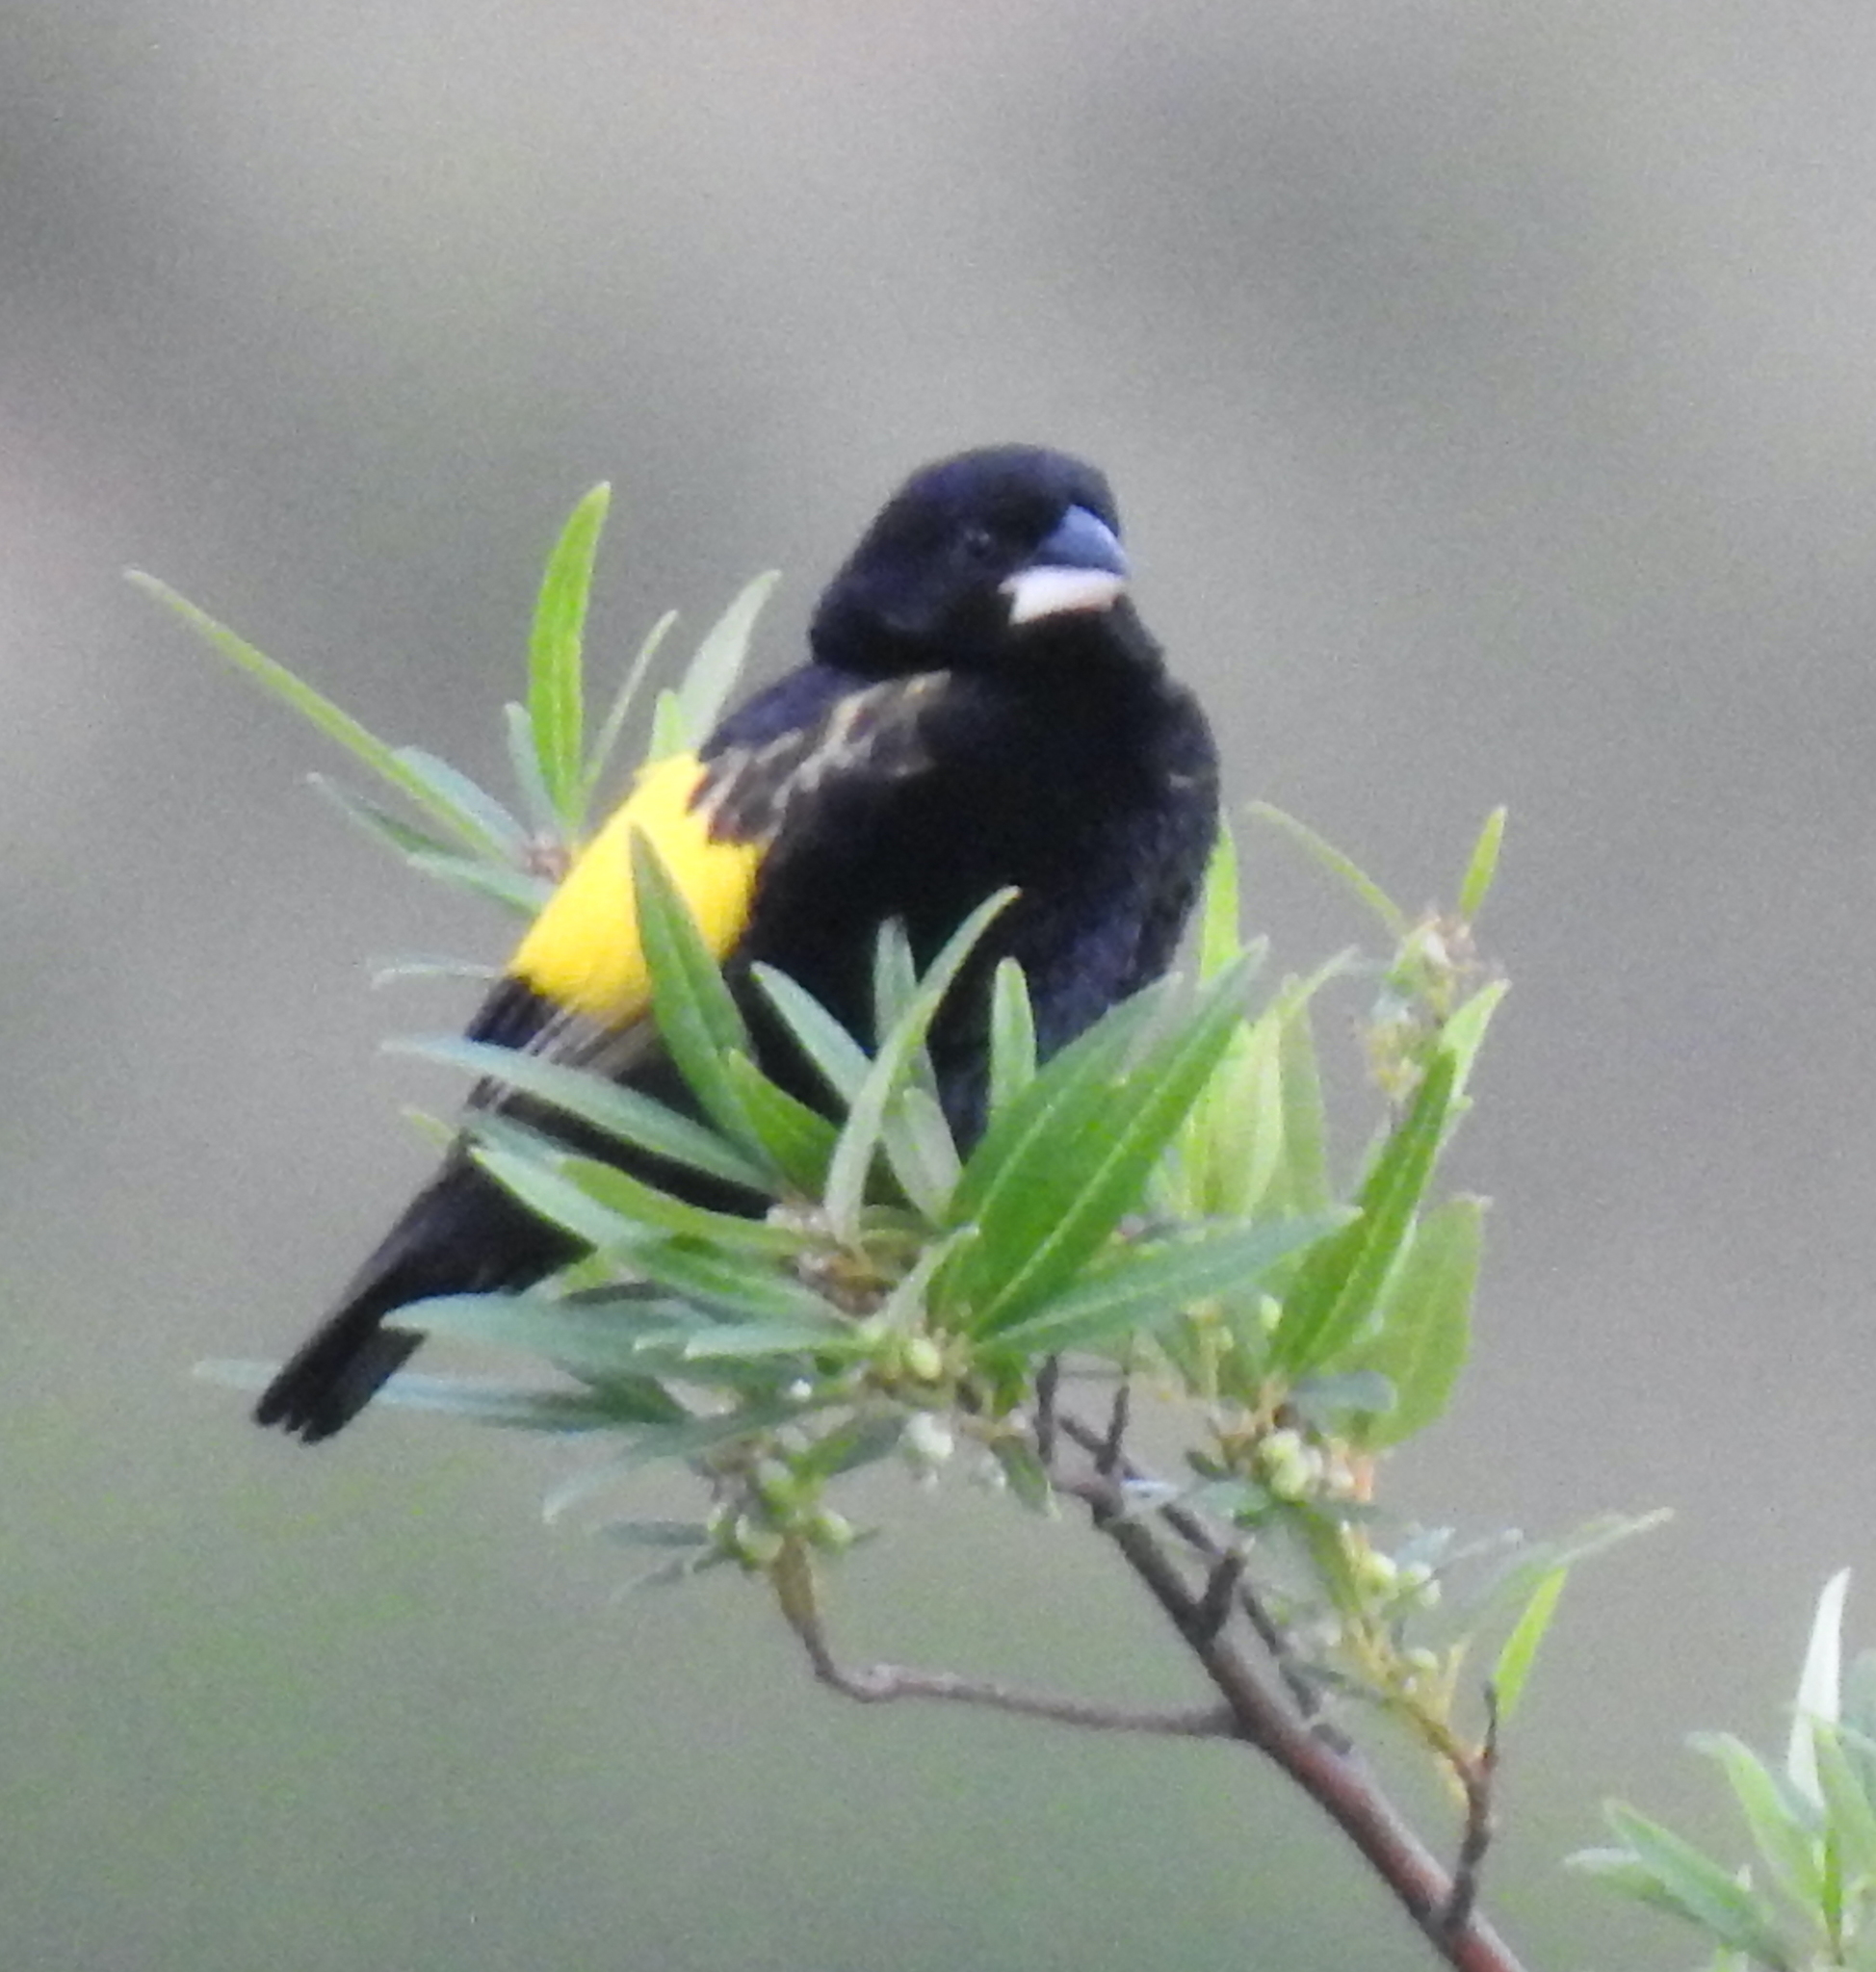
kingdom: Animalia
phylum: Chordata
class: Aves
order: Passeriformes
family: Ploceidae
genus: Euplectes
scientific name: Euplectes capensis
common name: Yellow bishop
